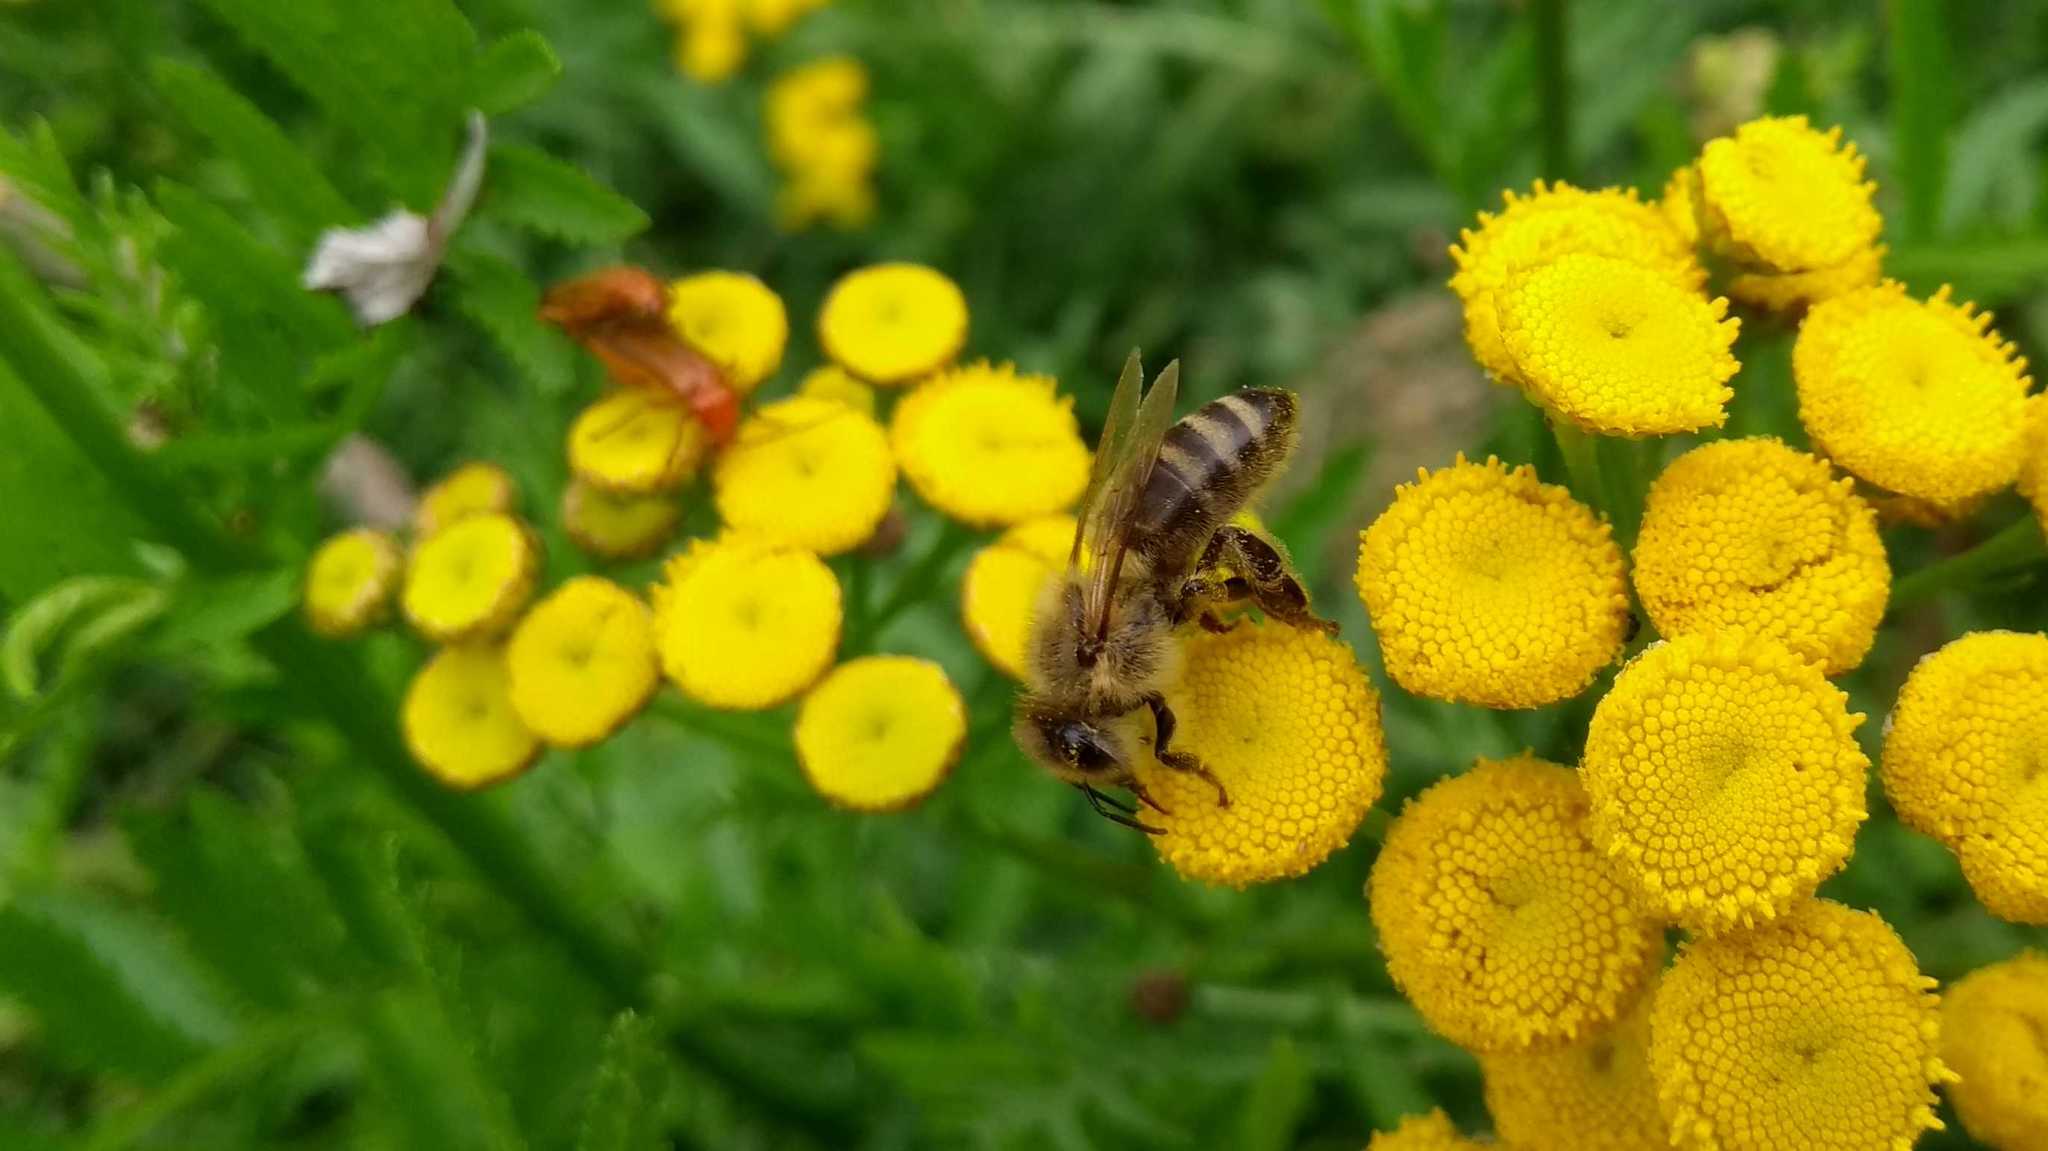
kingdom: Animalia
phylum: Arthropoda
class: Insecta
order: Hymenoptera
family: Apidae
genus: Apis
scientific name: Apis mellifera
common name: Honey bee
